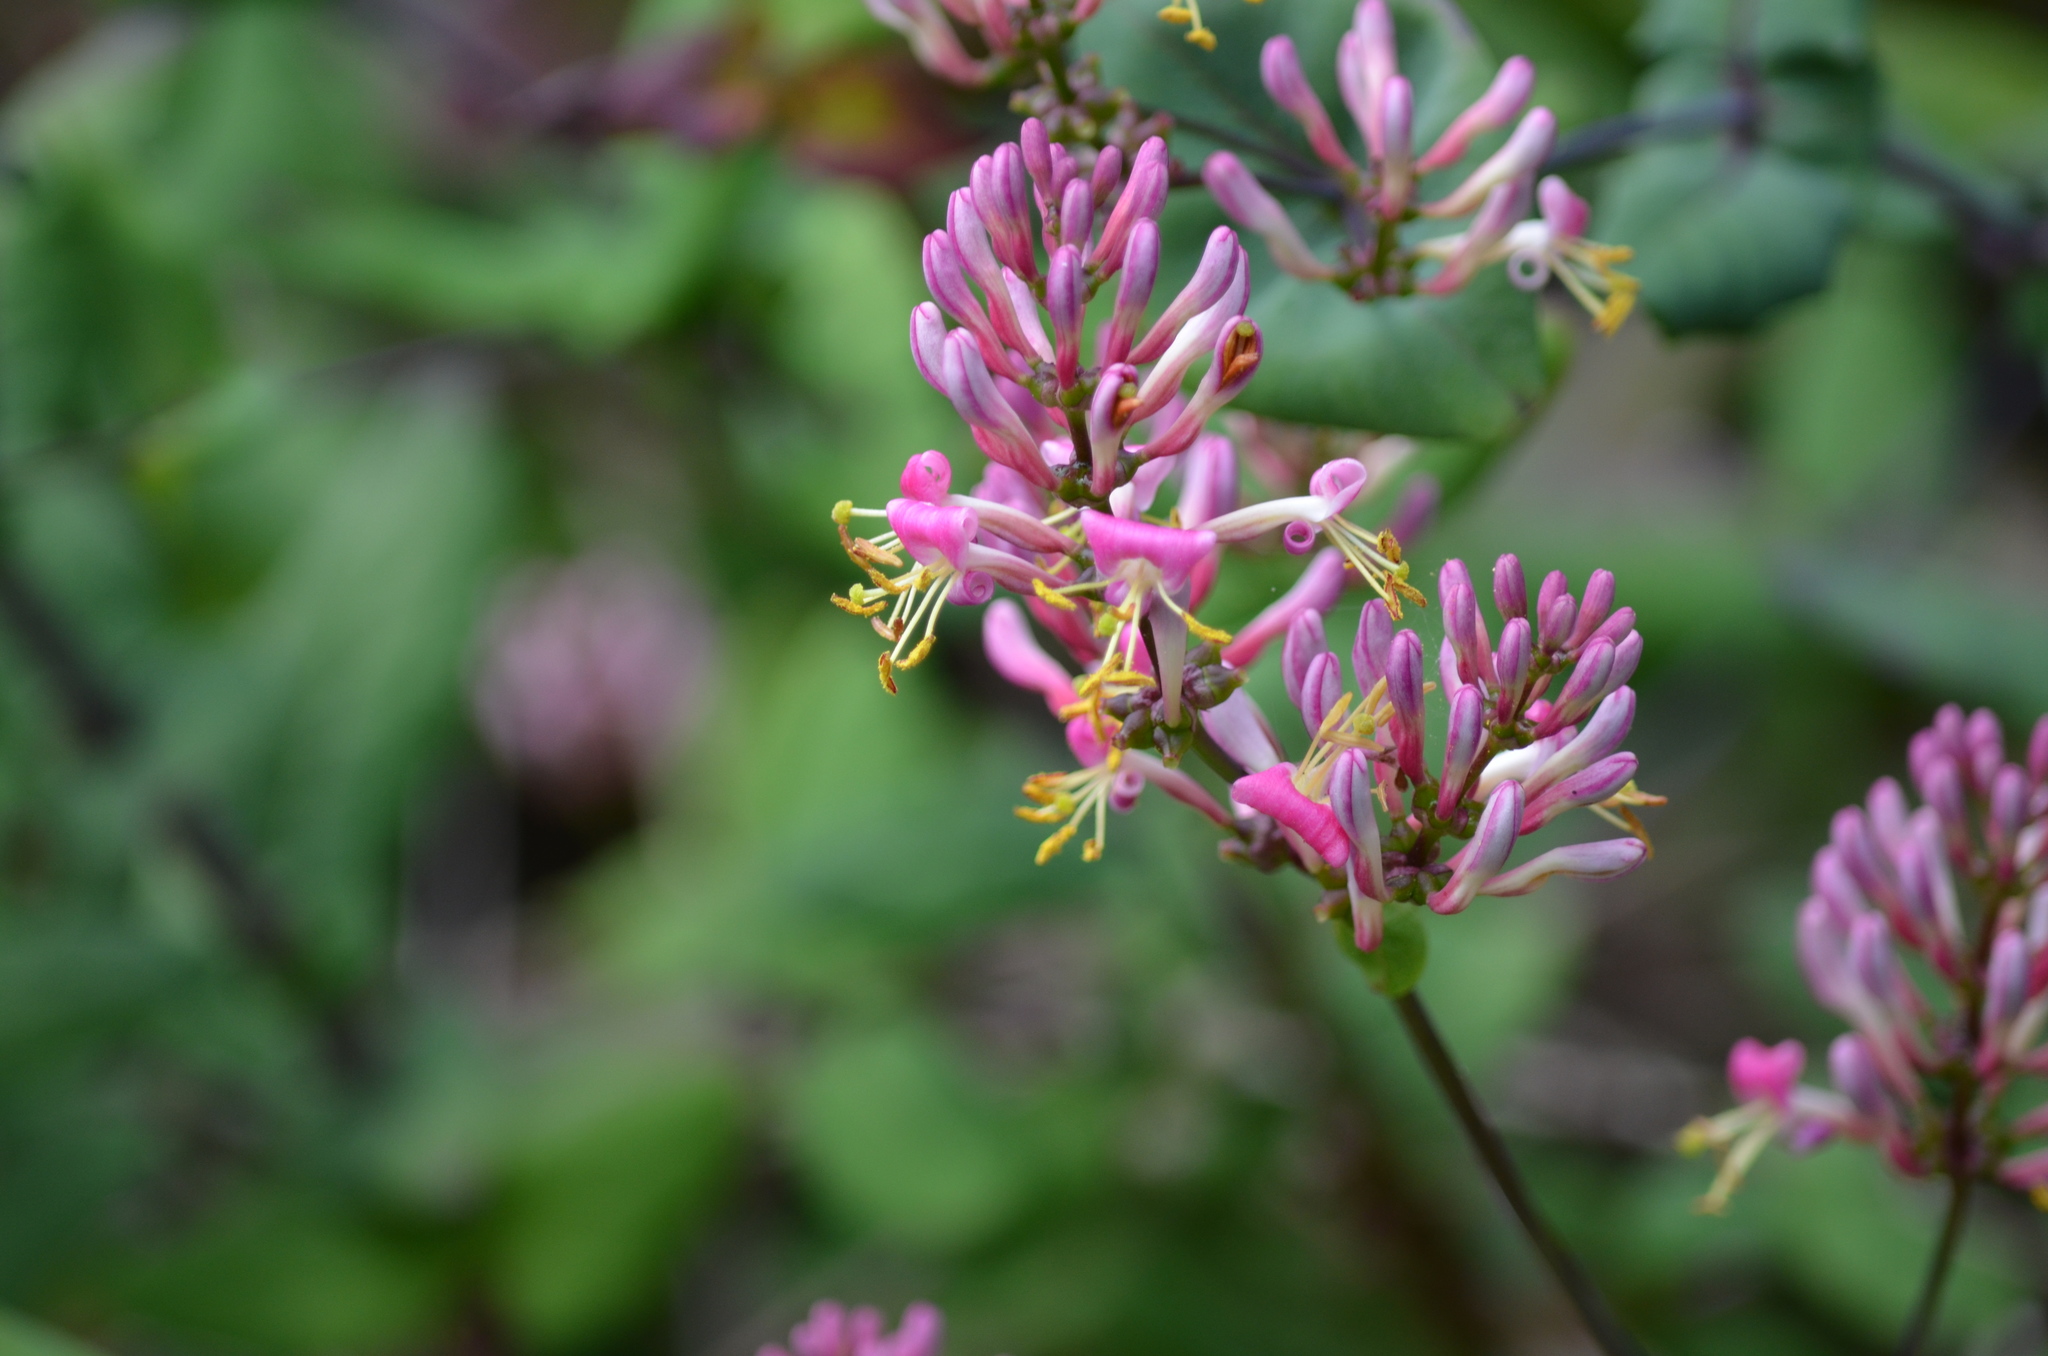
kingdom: Plantae
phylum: Tracheophyta
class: Magnoliopsida
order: Dipsacales
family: Caprifoliaceae
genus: Lonicera
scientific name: Lonicera hispidula
